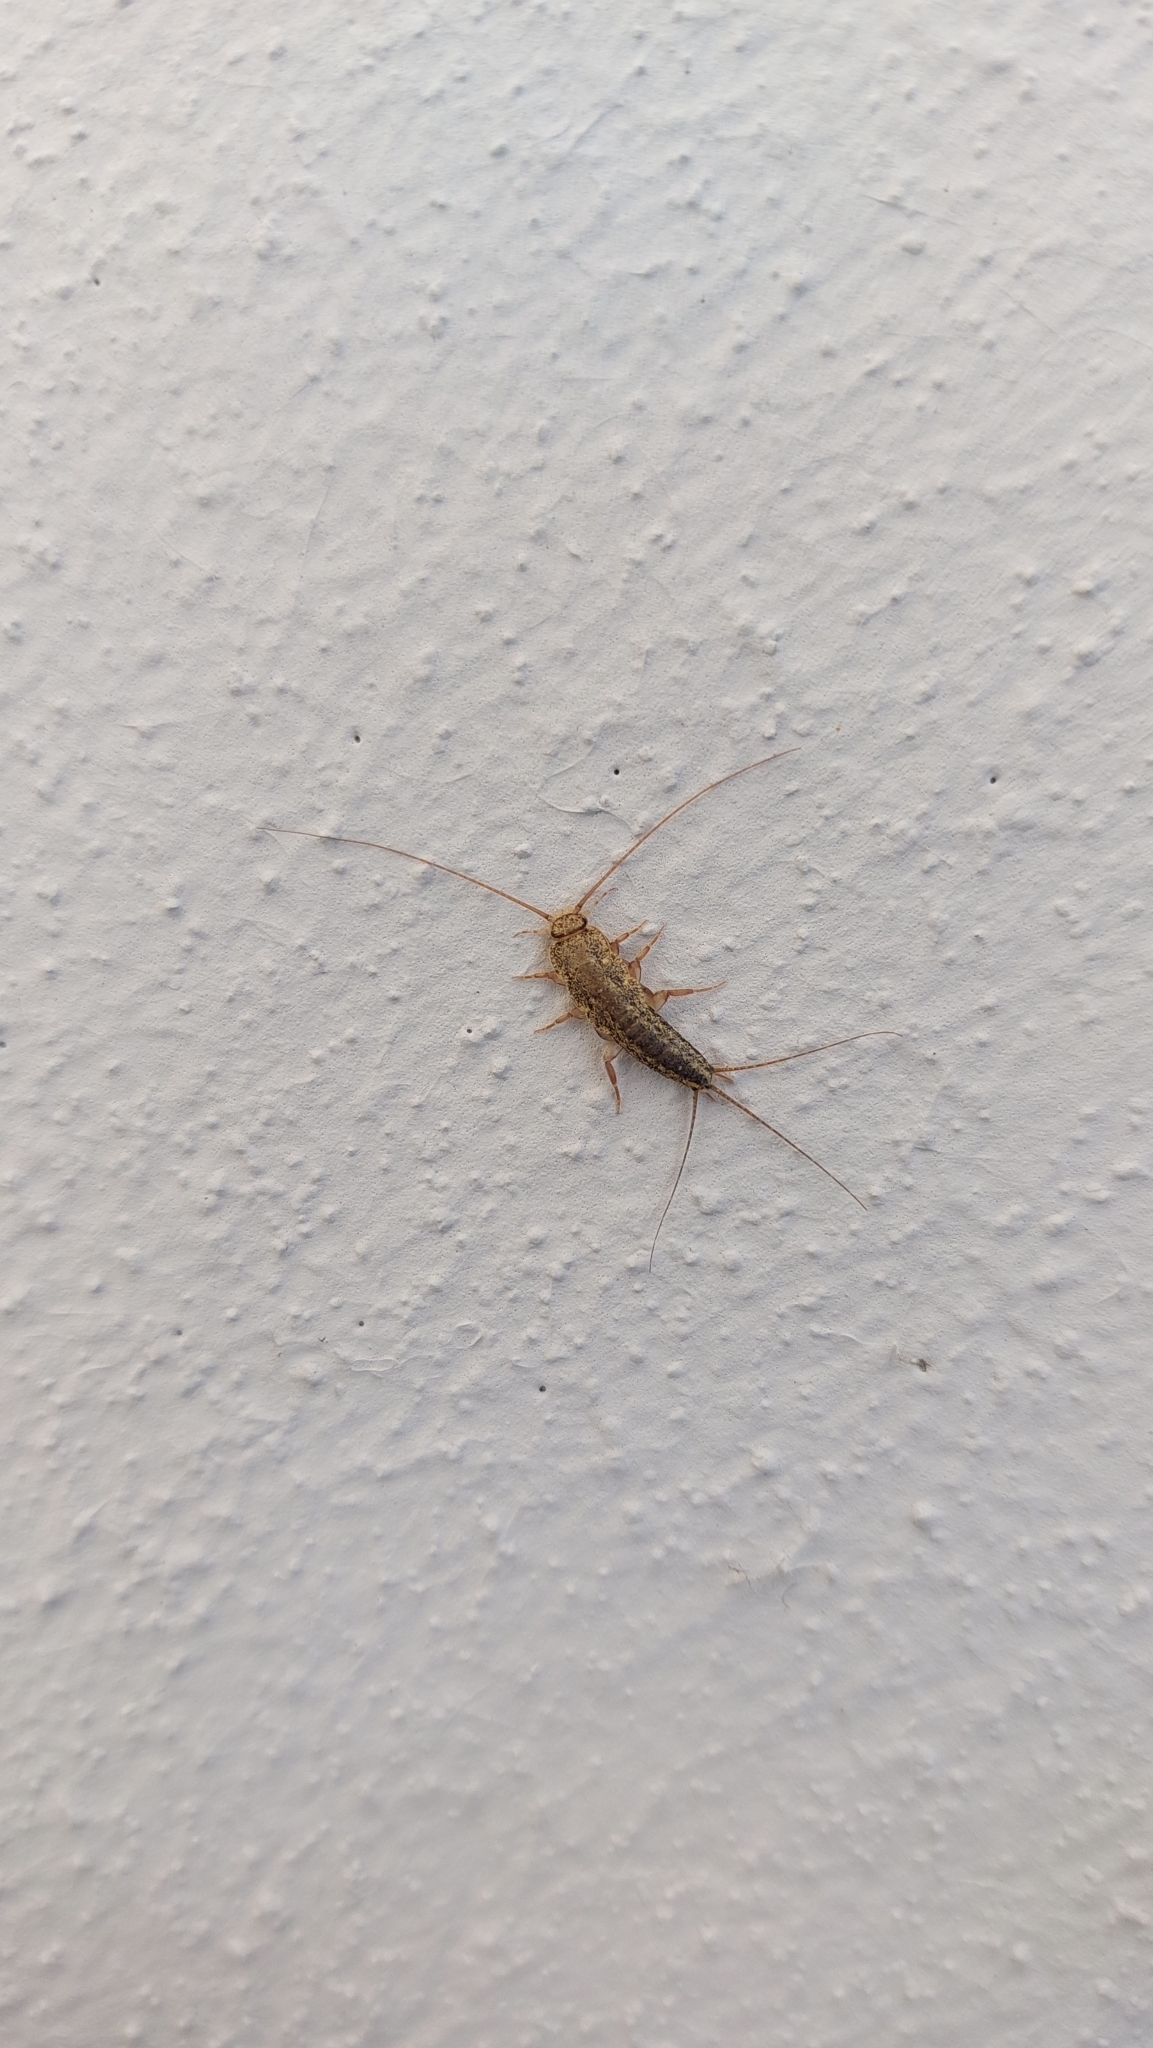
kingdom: Animalia
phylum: Arthropoda
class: Insecta
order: Zygentoma
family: Lepismatidae
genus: Ctenolepisma
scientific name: Ctenolepisma lineata
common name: Four-lined silverfish
